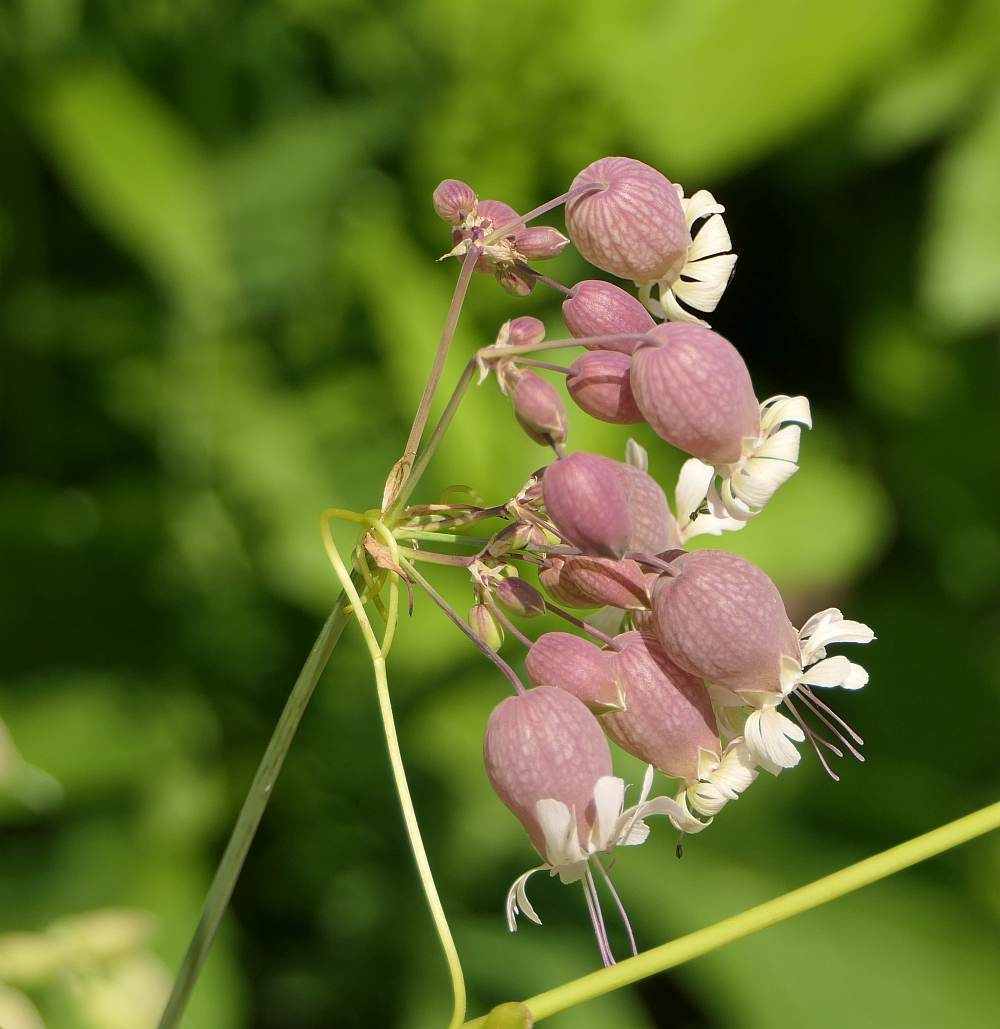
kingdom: Plantae
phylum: Tracheophyta
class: Magnoliopsida
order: Caryophyllales
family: Caryophyllaceae
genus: Silene
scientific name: Silene vulgaris
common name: Bladder campion
